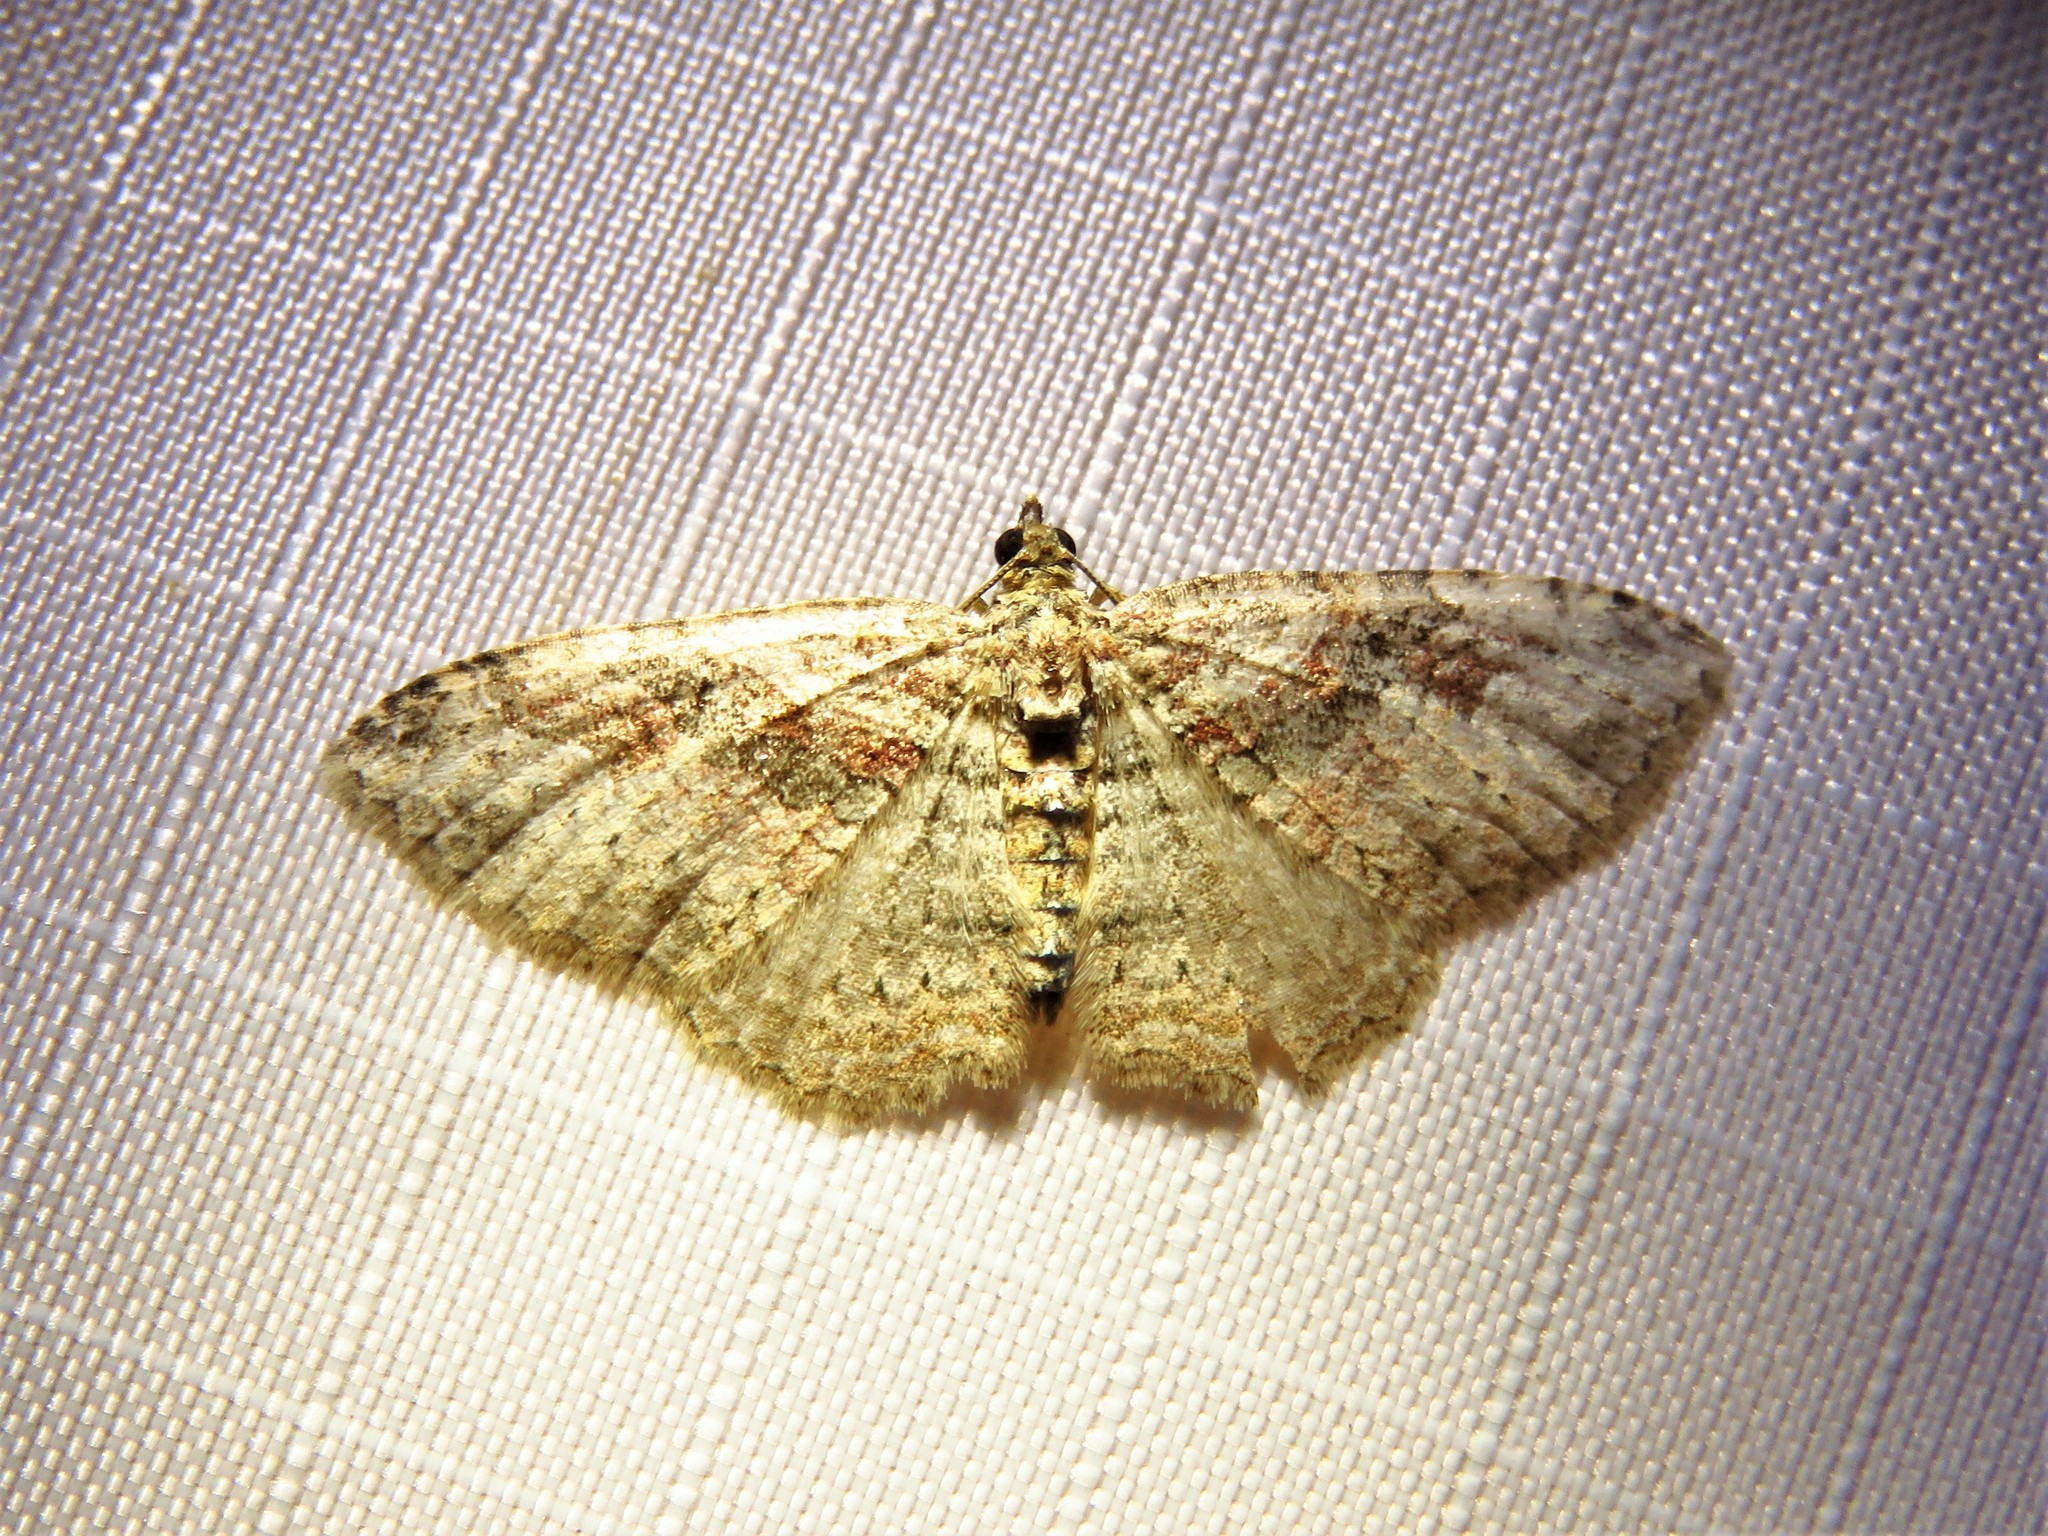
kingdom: Animalia
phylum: Arthropoda
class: Insecta
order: Lepidoptera
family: Geometridae
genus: Costaconvexa
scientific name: Costaconvexa centrostrigaria
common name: Bent-line carpet
